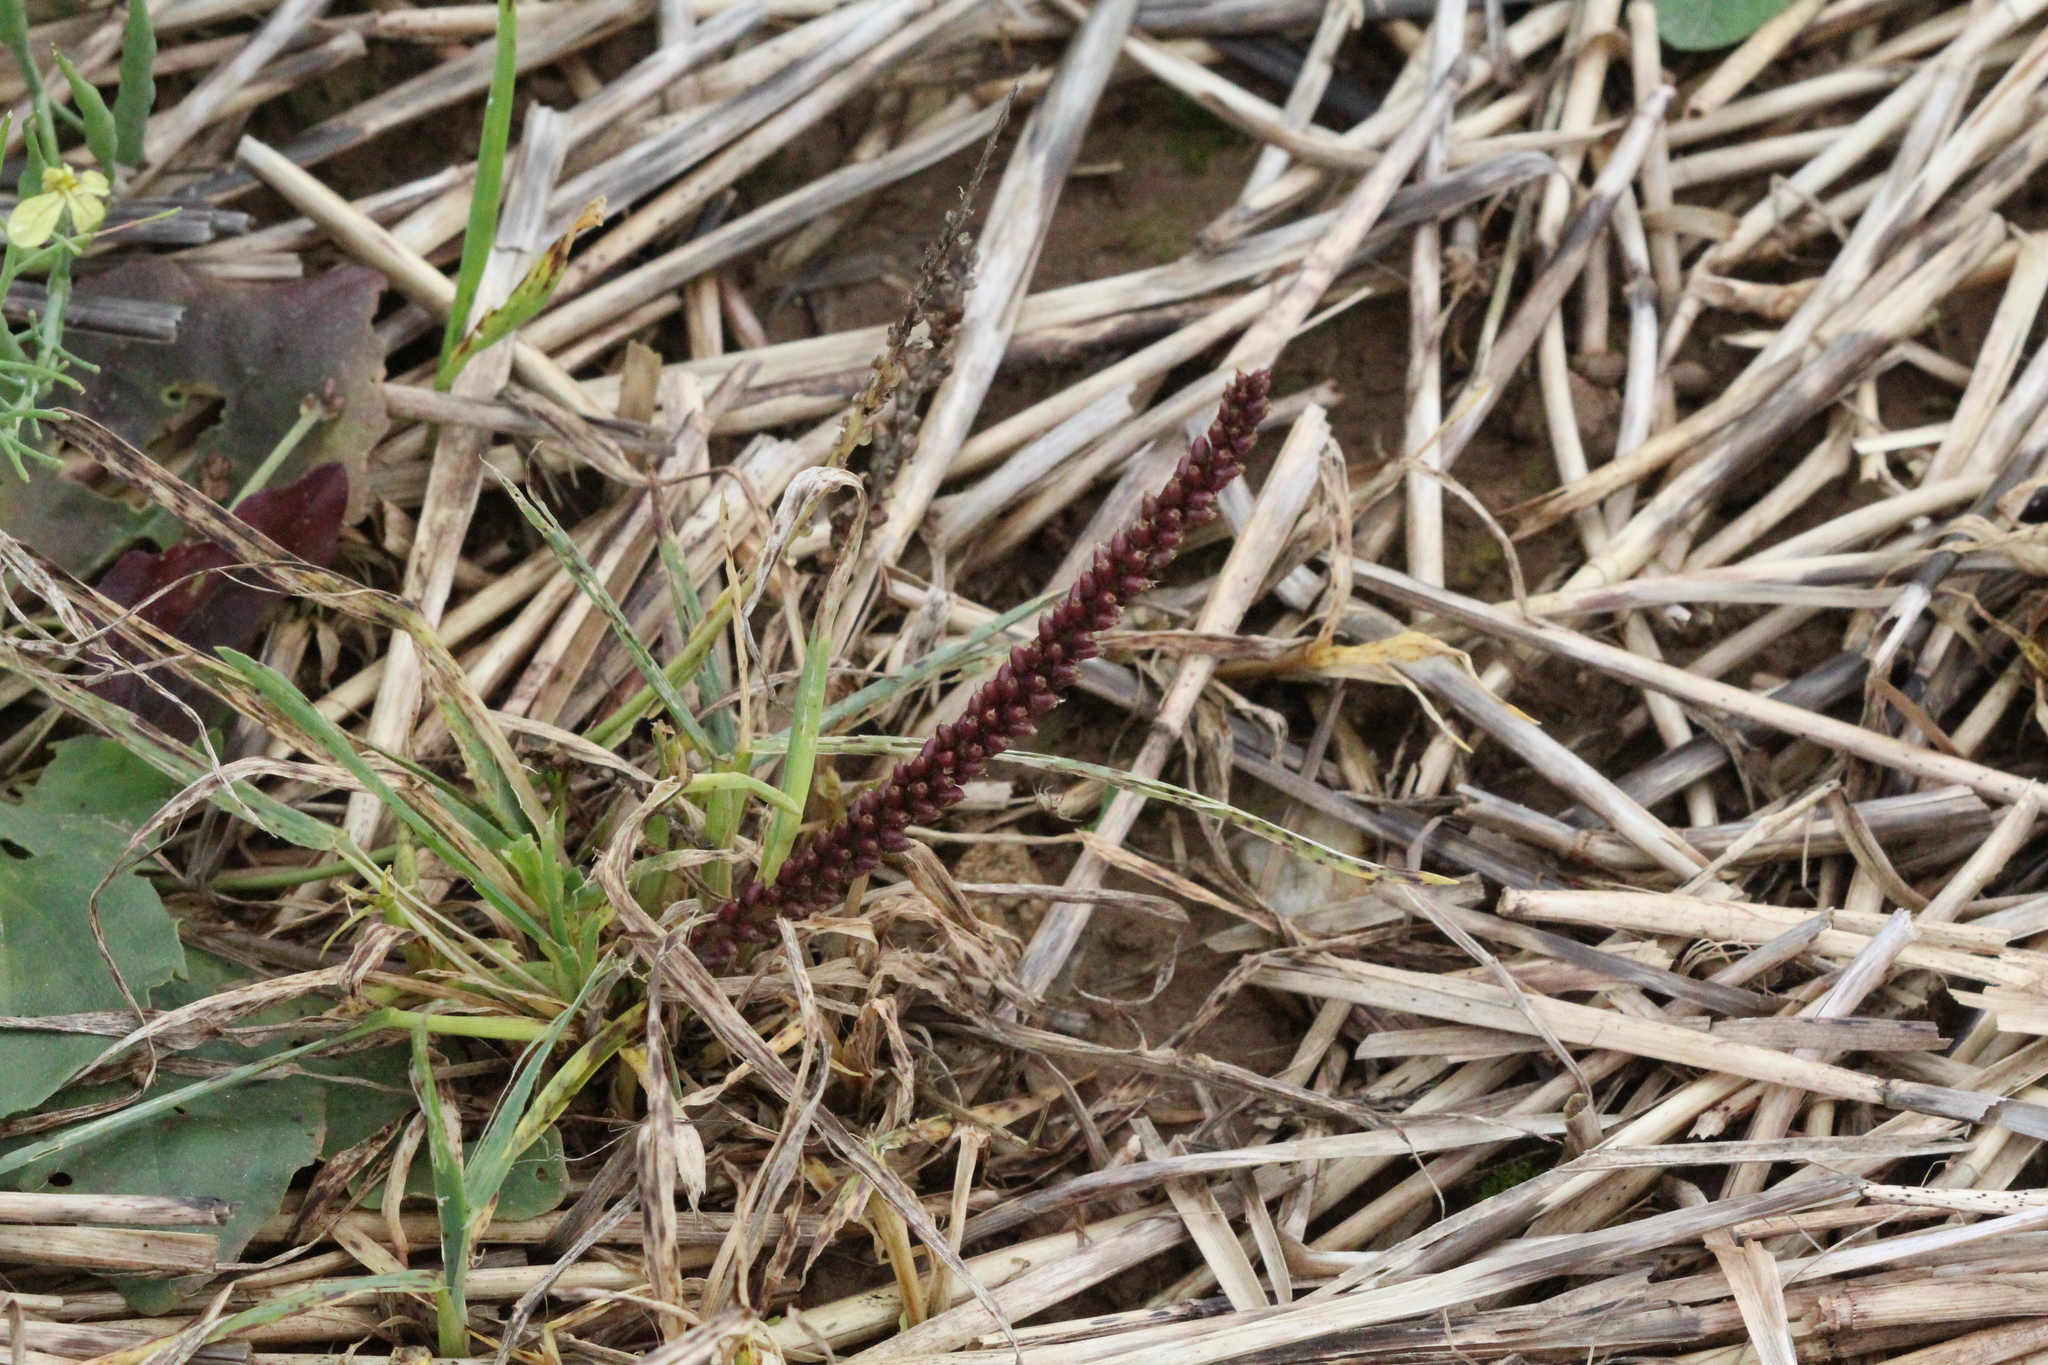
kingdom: Plantae
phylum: Tracheophyta
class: Magnoliopsida
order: Lamiales
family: Plantaginaceae
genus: Plantago
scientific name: Plantago major
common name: Common plantain
